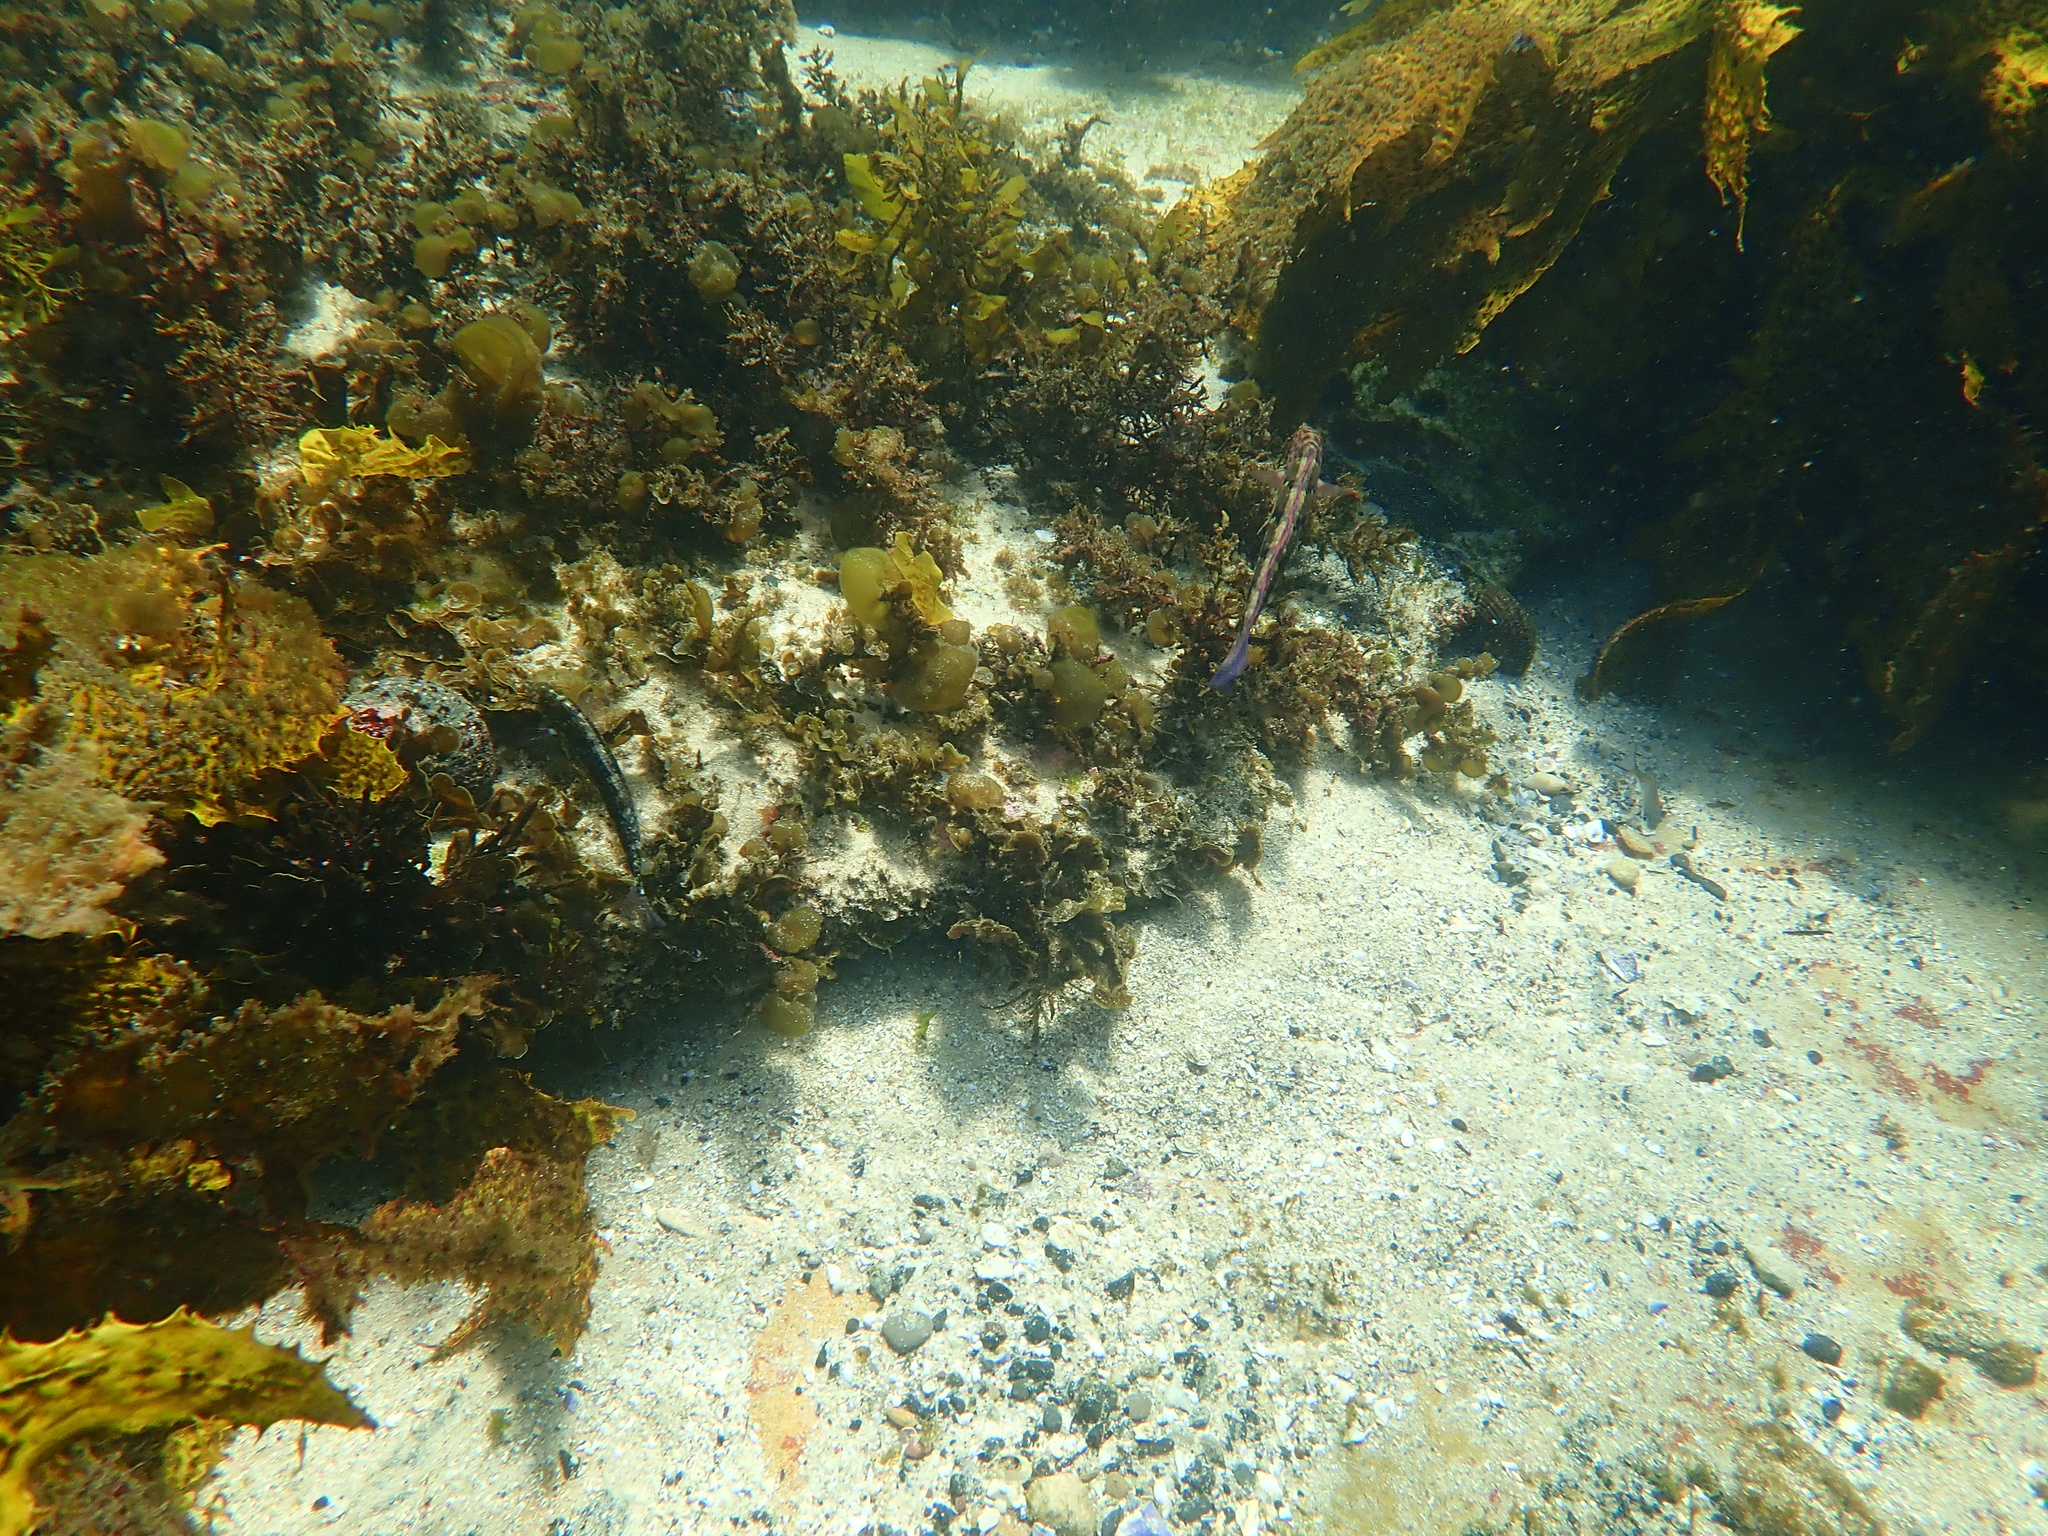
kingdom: Animalia
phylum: Chordata
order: Perciformes
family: Labridae
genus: Eupetrichthys
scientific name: Eupetrichthys angustipes
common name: Snake-skin wrasse
